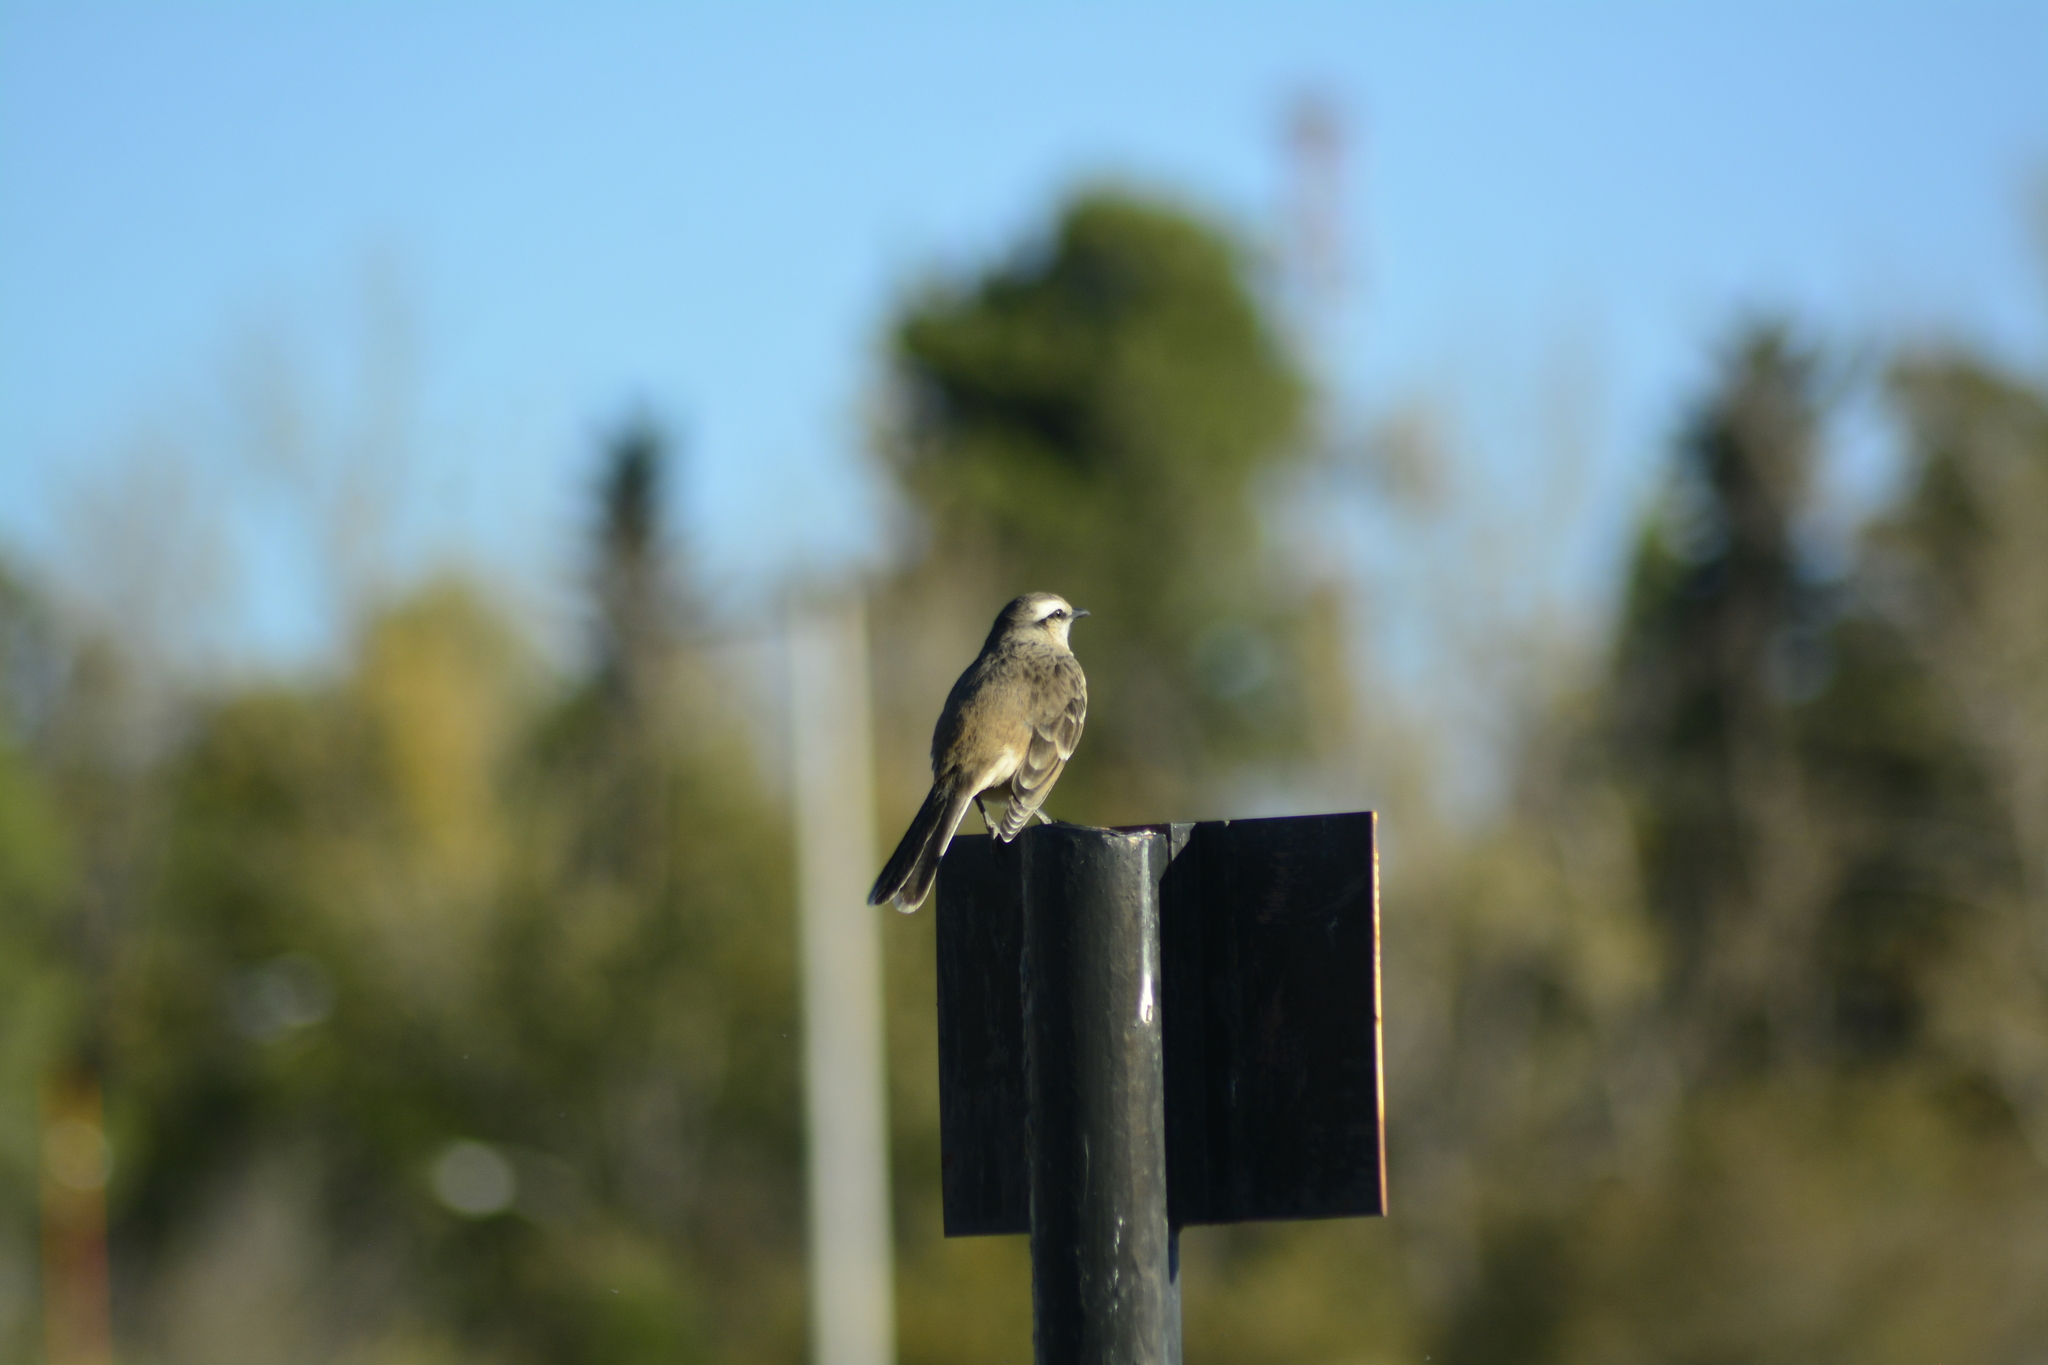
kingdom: Animalia
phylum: Chordata
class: Aves
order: Passeriformes
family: Mimidae
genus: Mimus
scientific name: Mimus saturninus
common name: Chalk-browed mockingbird
